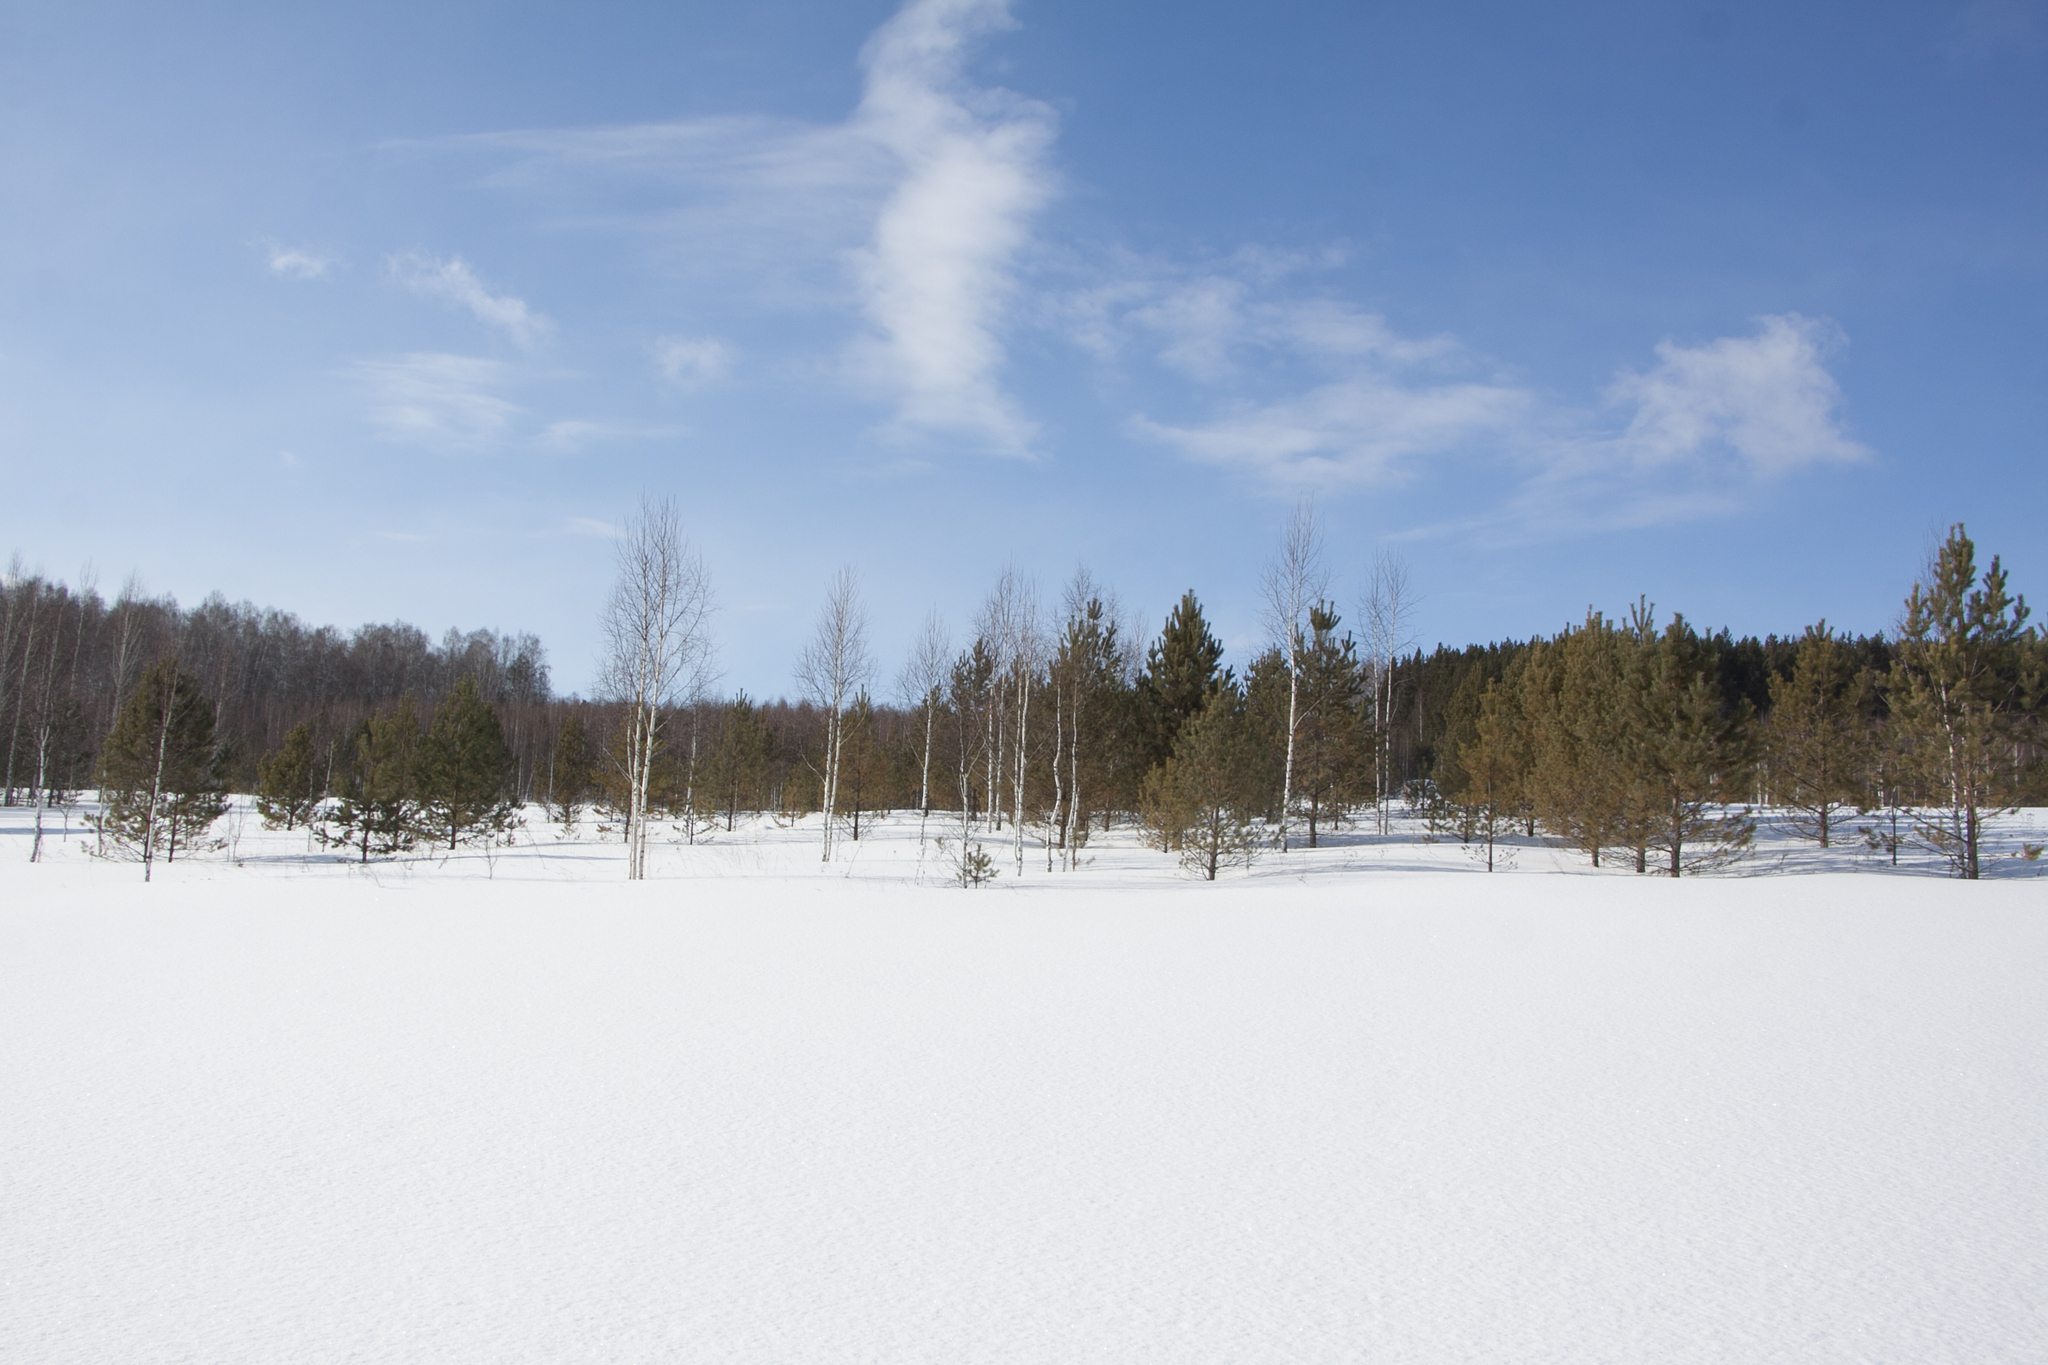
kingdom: Plantae
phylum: Tracheophyta
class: Pinopsida
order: Pinales
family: Pinaceae
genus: Pinus
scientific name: Pinus sylvestris
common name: Scots pine
